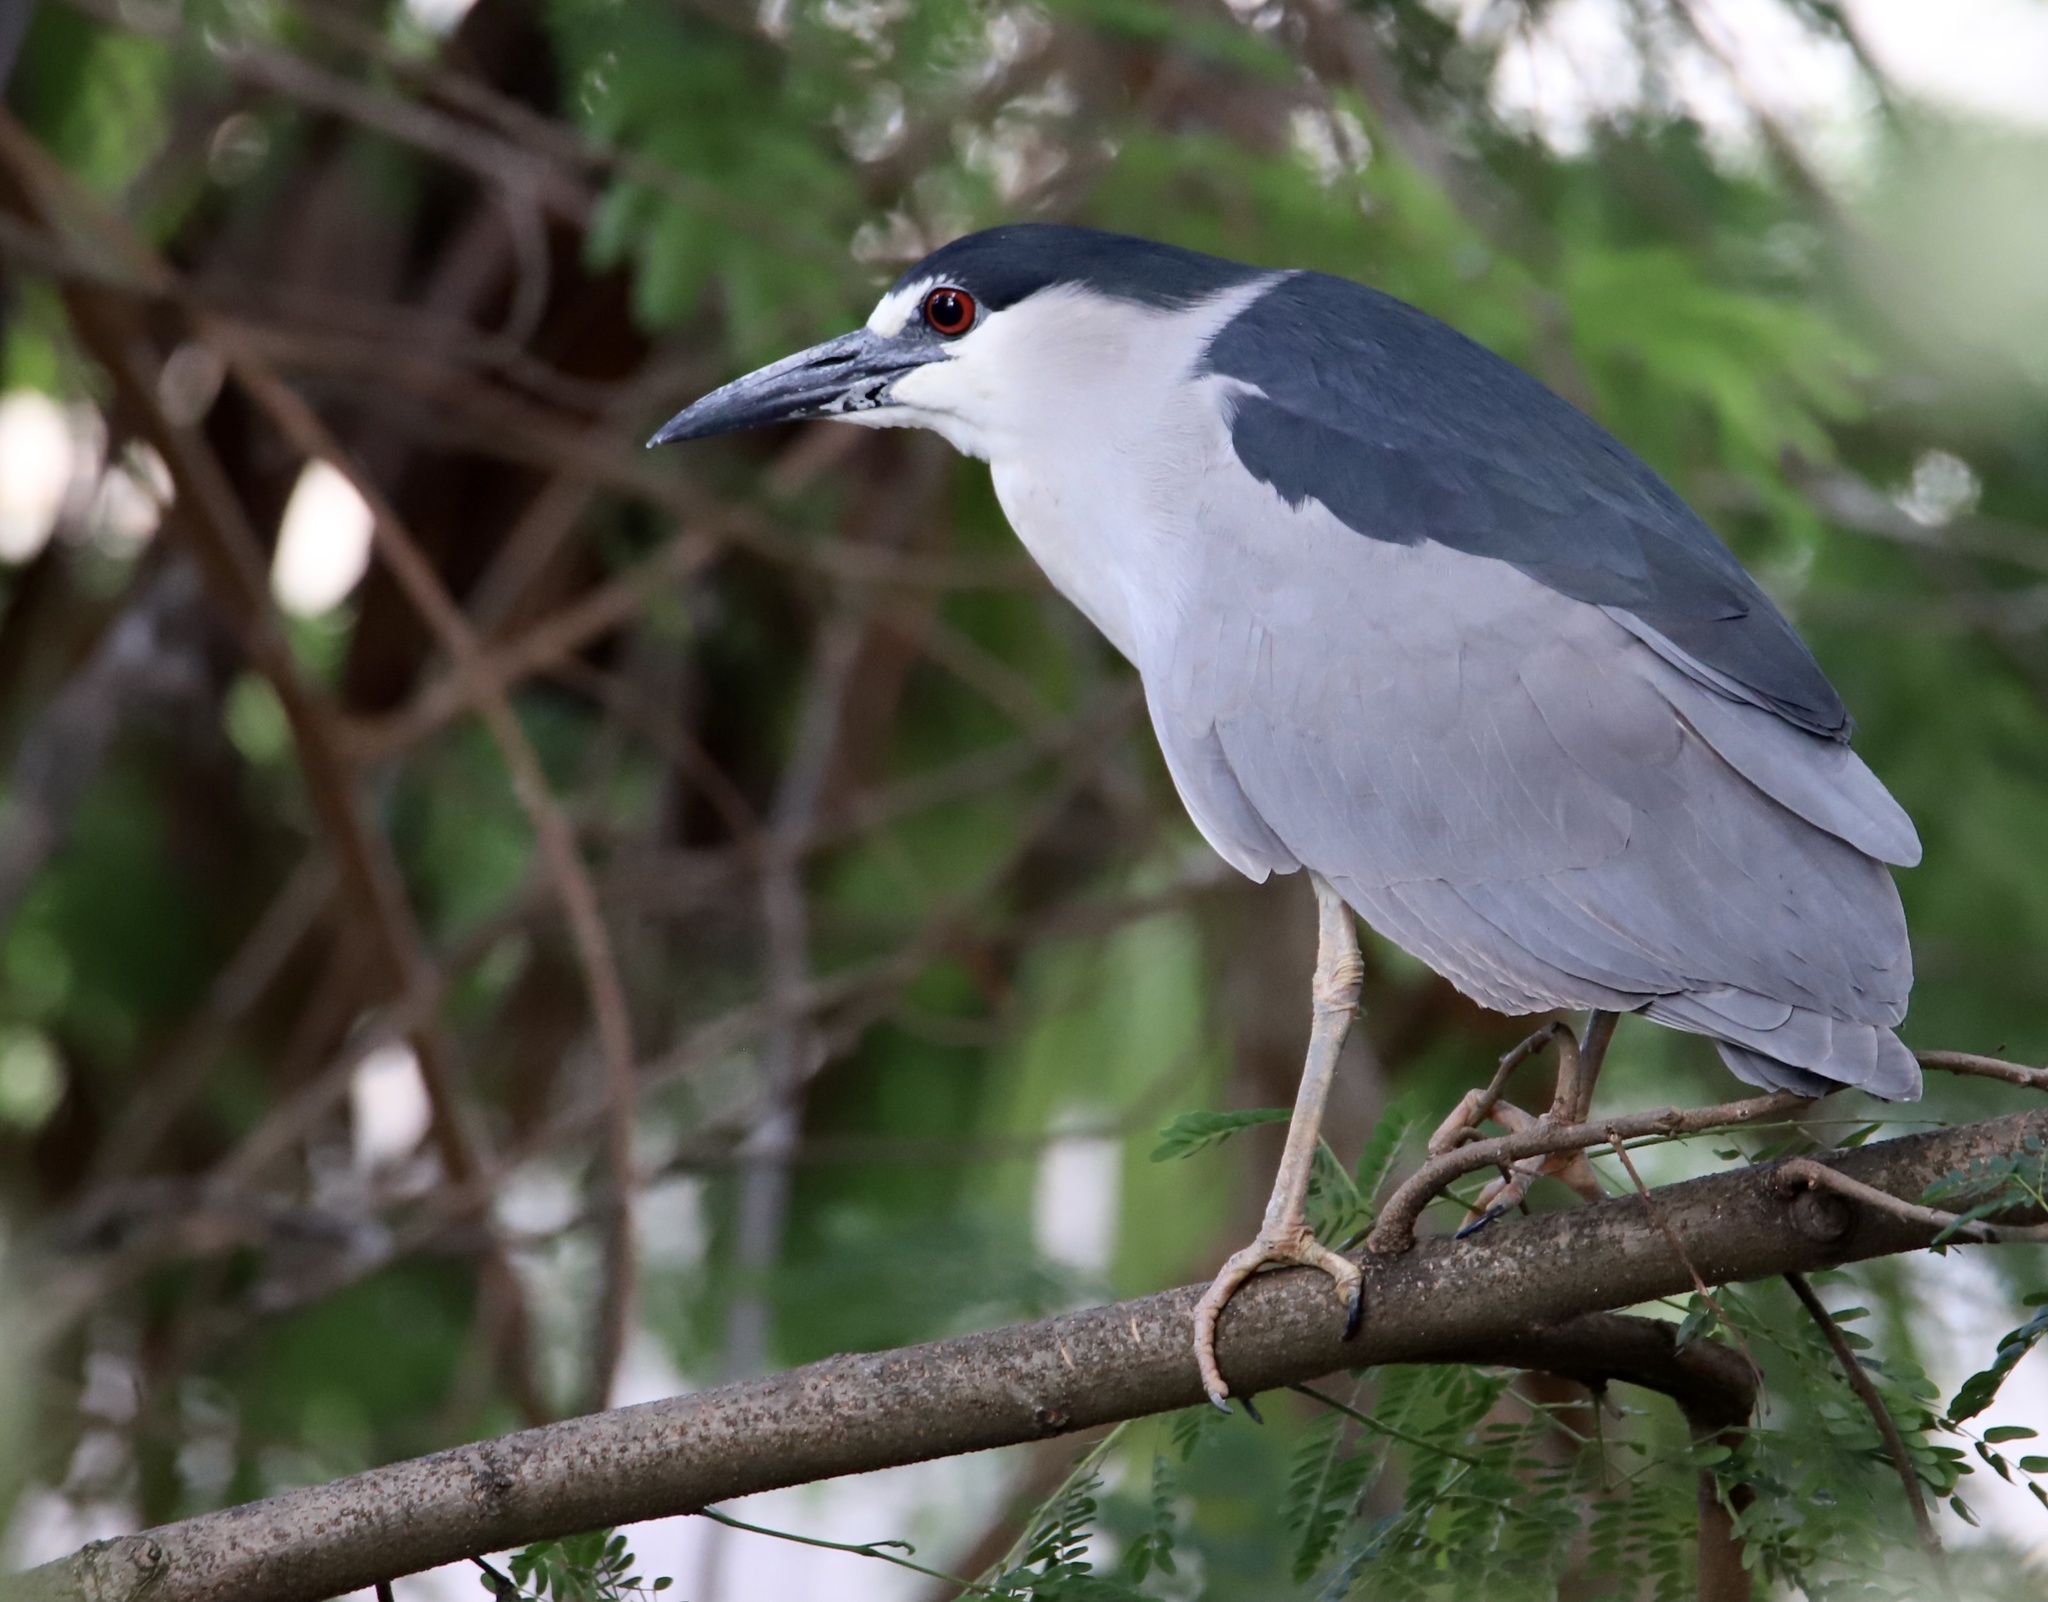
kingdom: Animalia
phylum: Chordata
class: Aves
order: Pelecaniformes
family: Ardeidae
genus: Nycticorax
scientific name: Nycticorax nycticorax
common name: Black-crowned night heron
